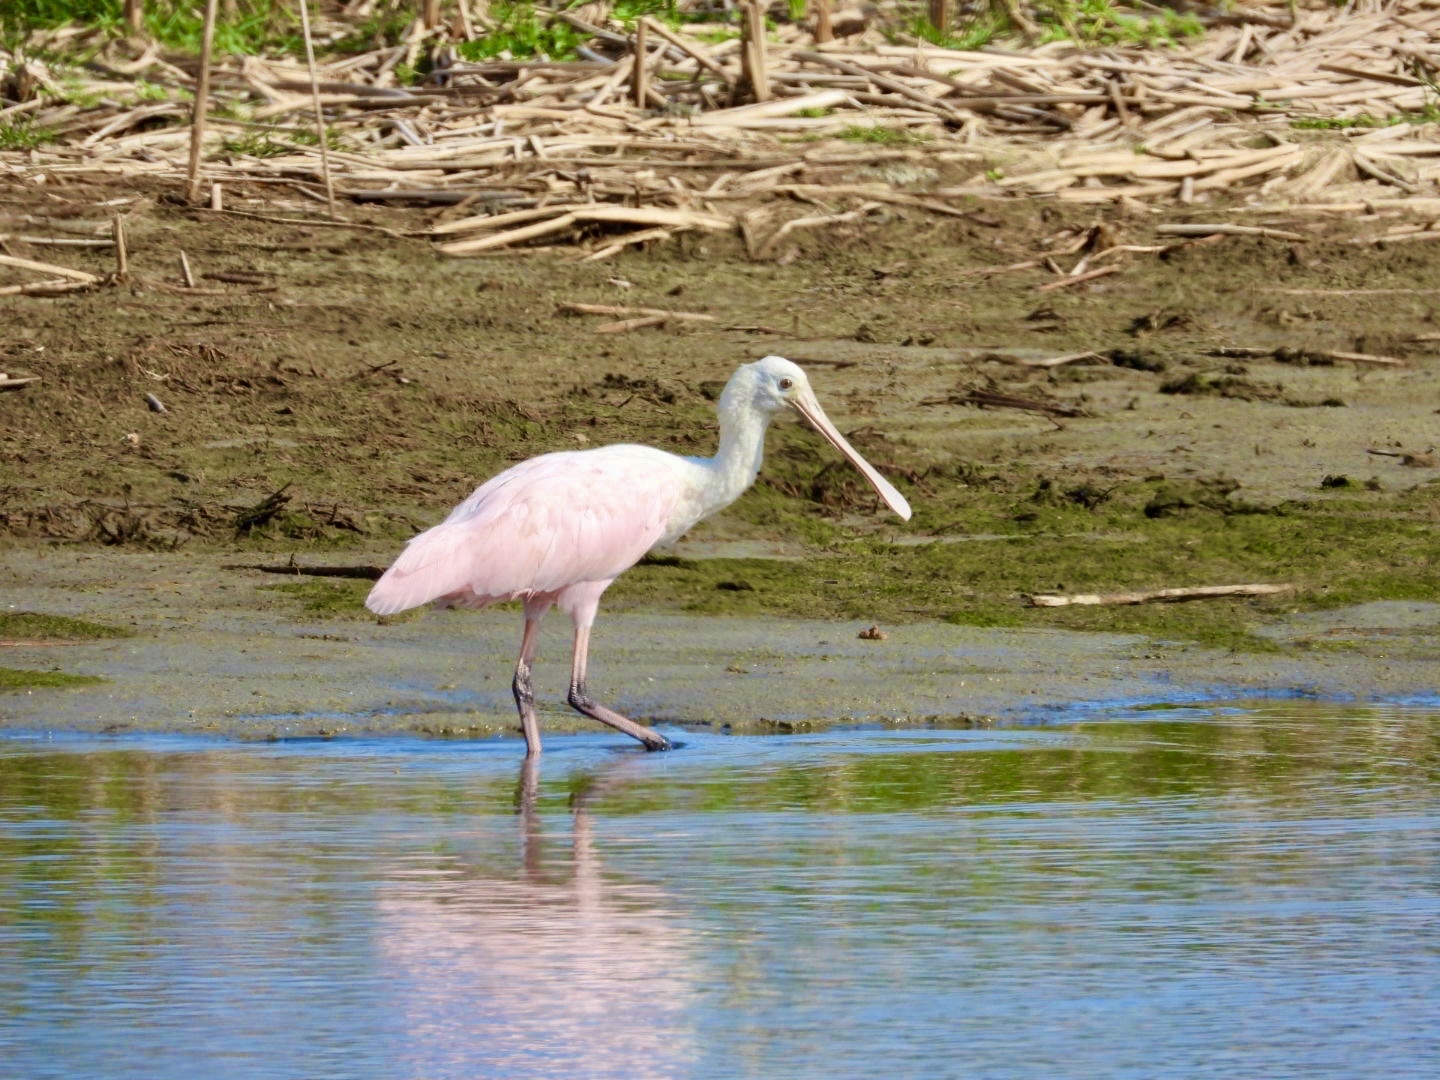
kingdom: Animalia
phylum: Chordata
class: Aves
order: Pelecaniformes
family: Threskiornithidae
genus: Platalea
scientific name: Platalea ajaja
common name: Roseate spoonbill
